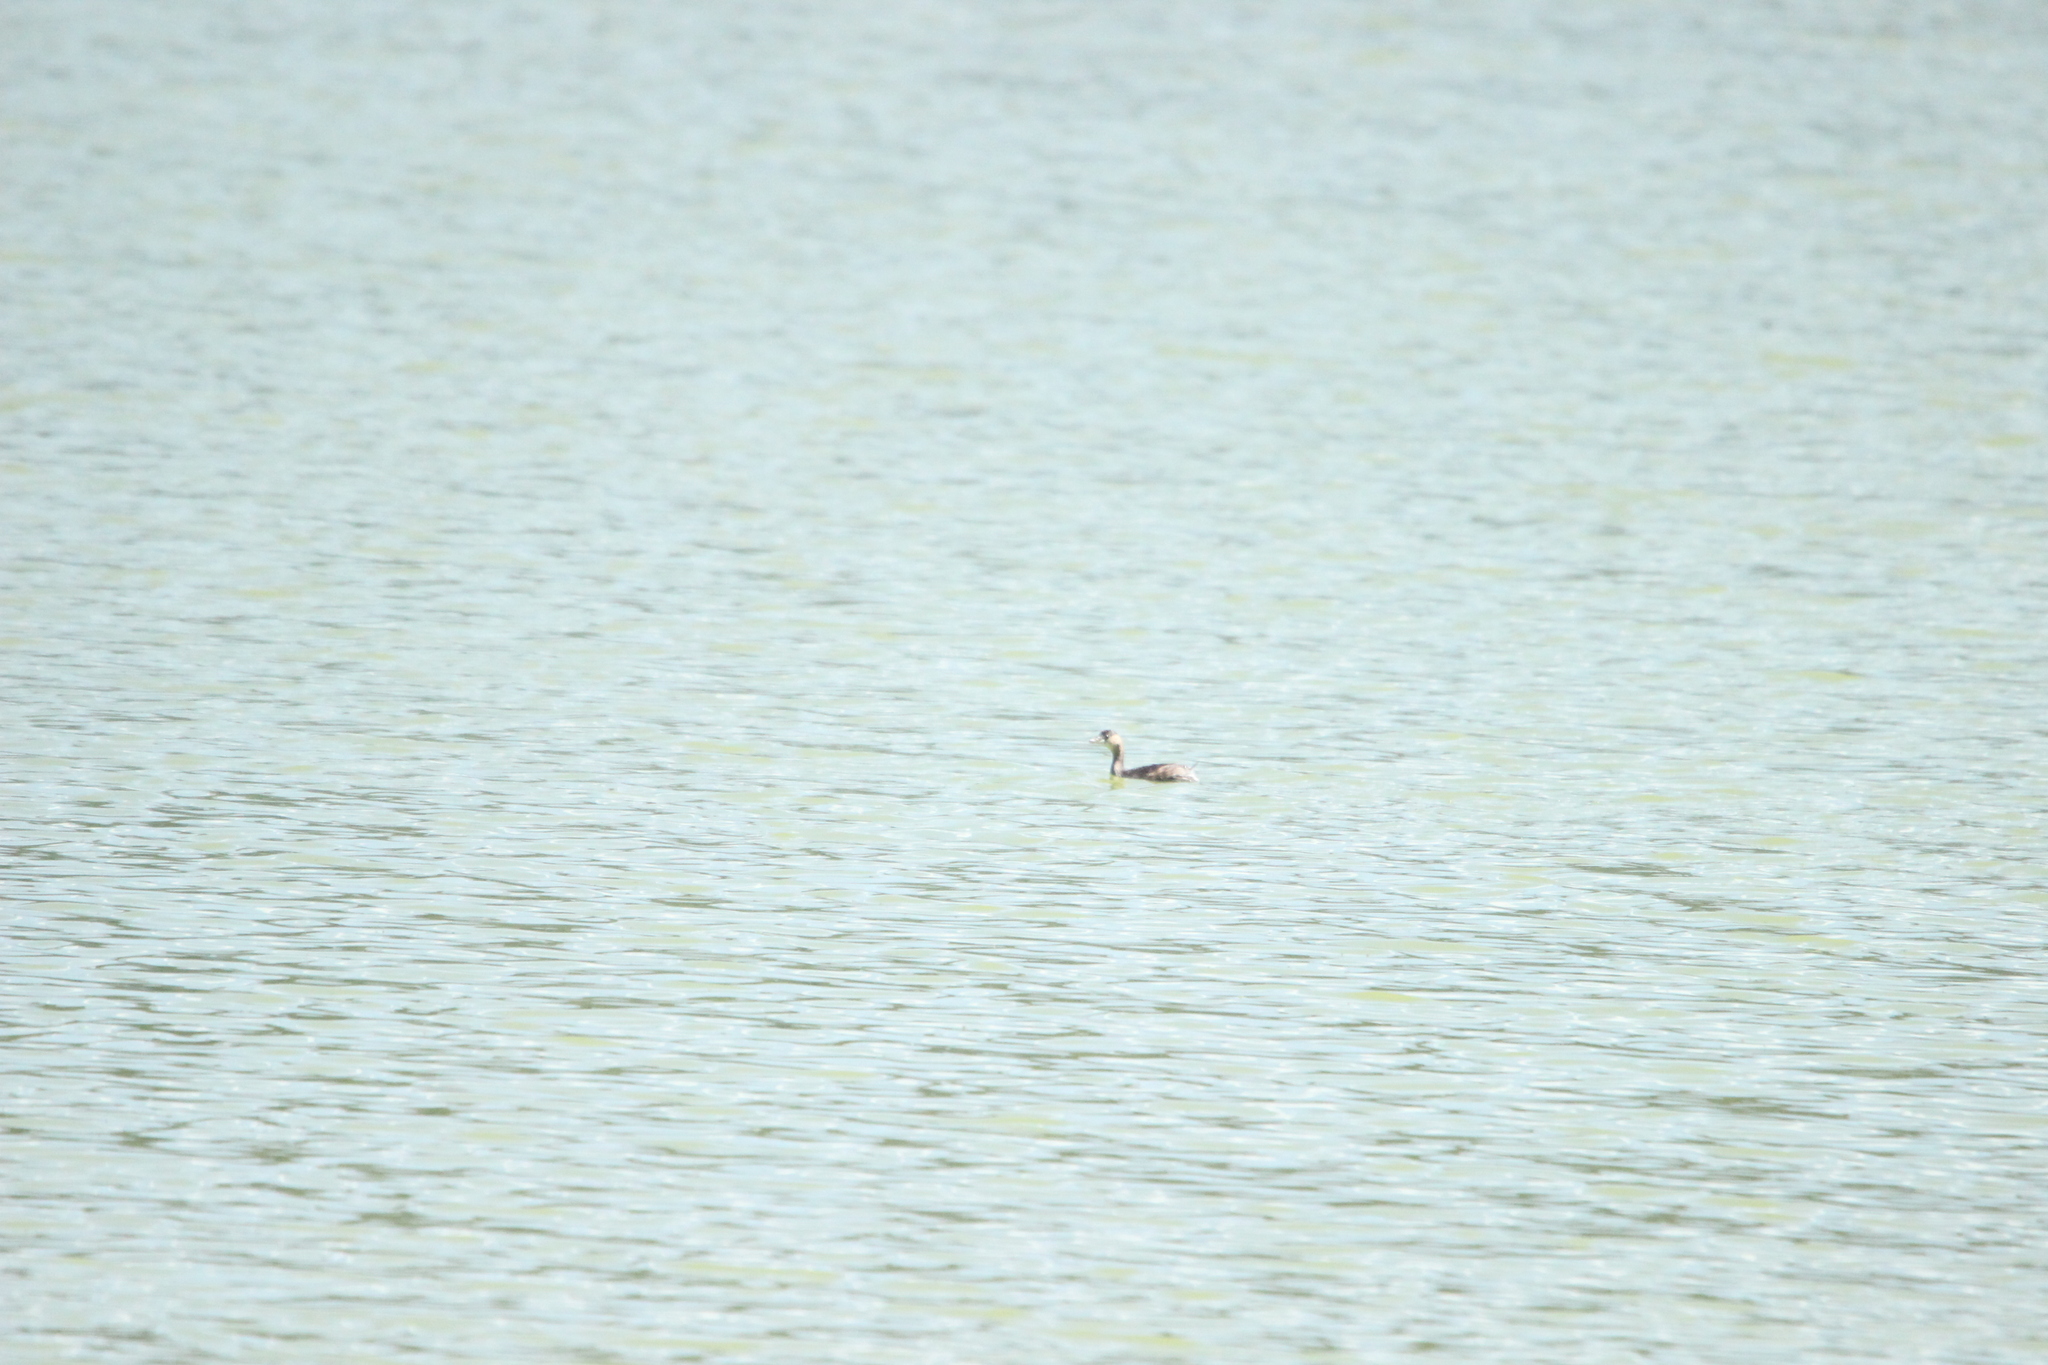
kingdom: Animalia
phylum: Chordata
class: Aves
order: Podicipediformes
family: Podicipedidae
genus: Tachybaptus
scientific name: Tachybaptus ruficollis
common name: Little grebe
